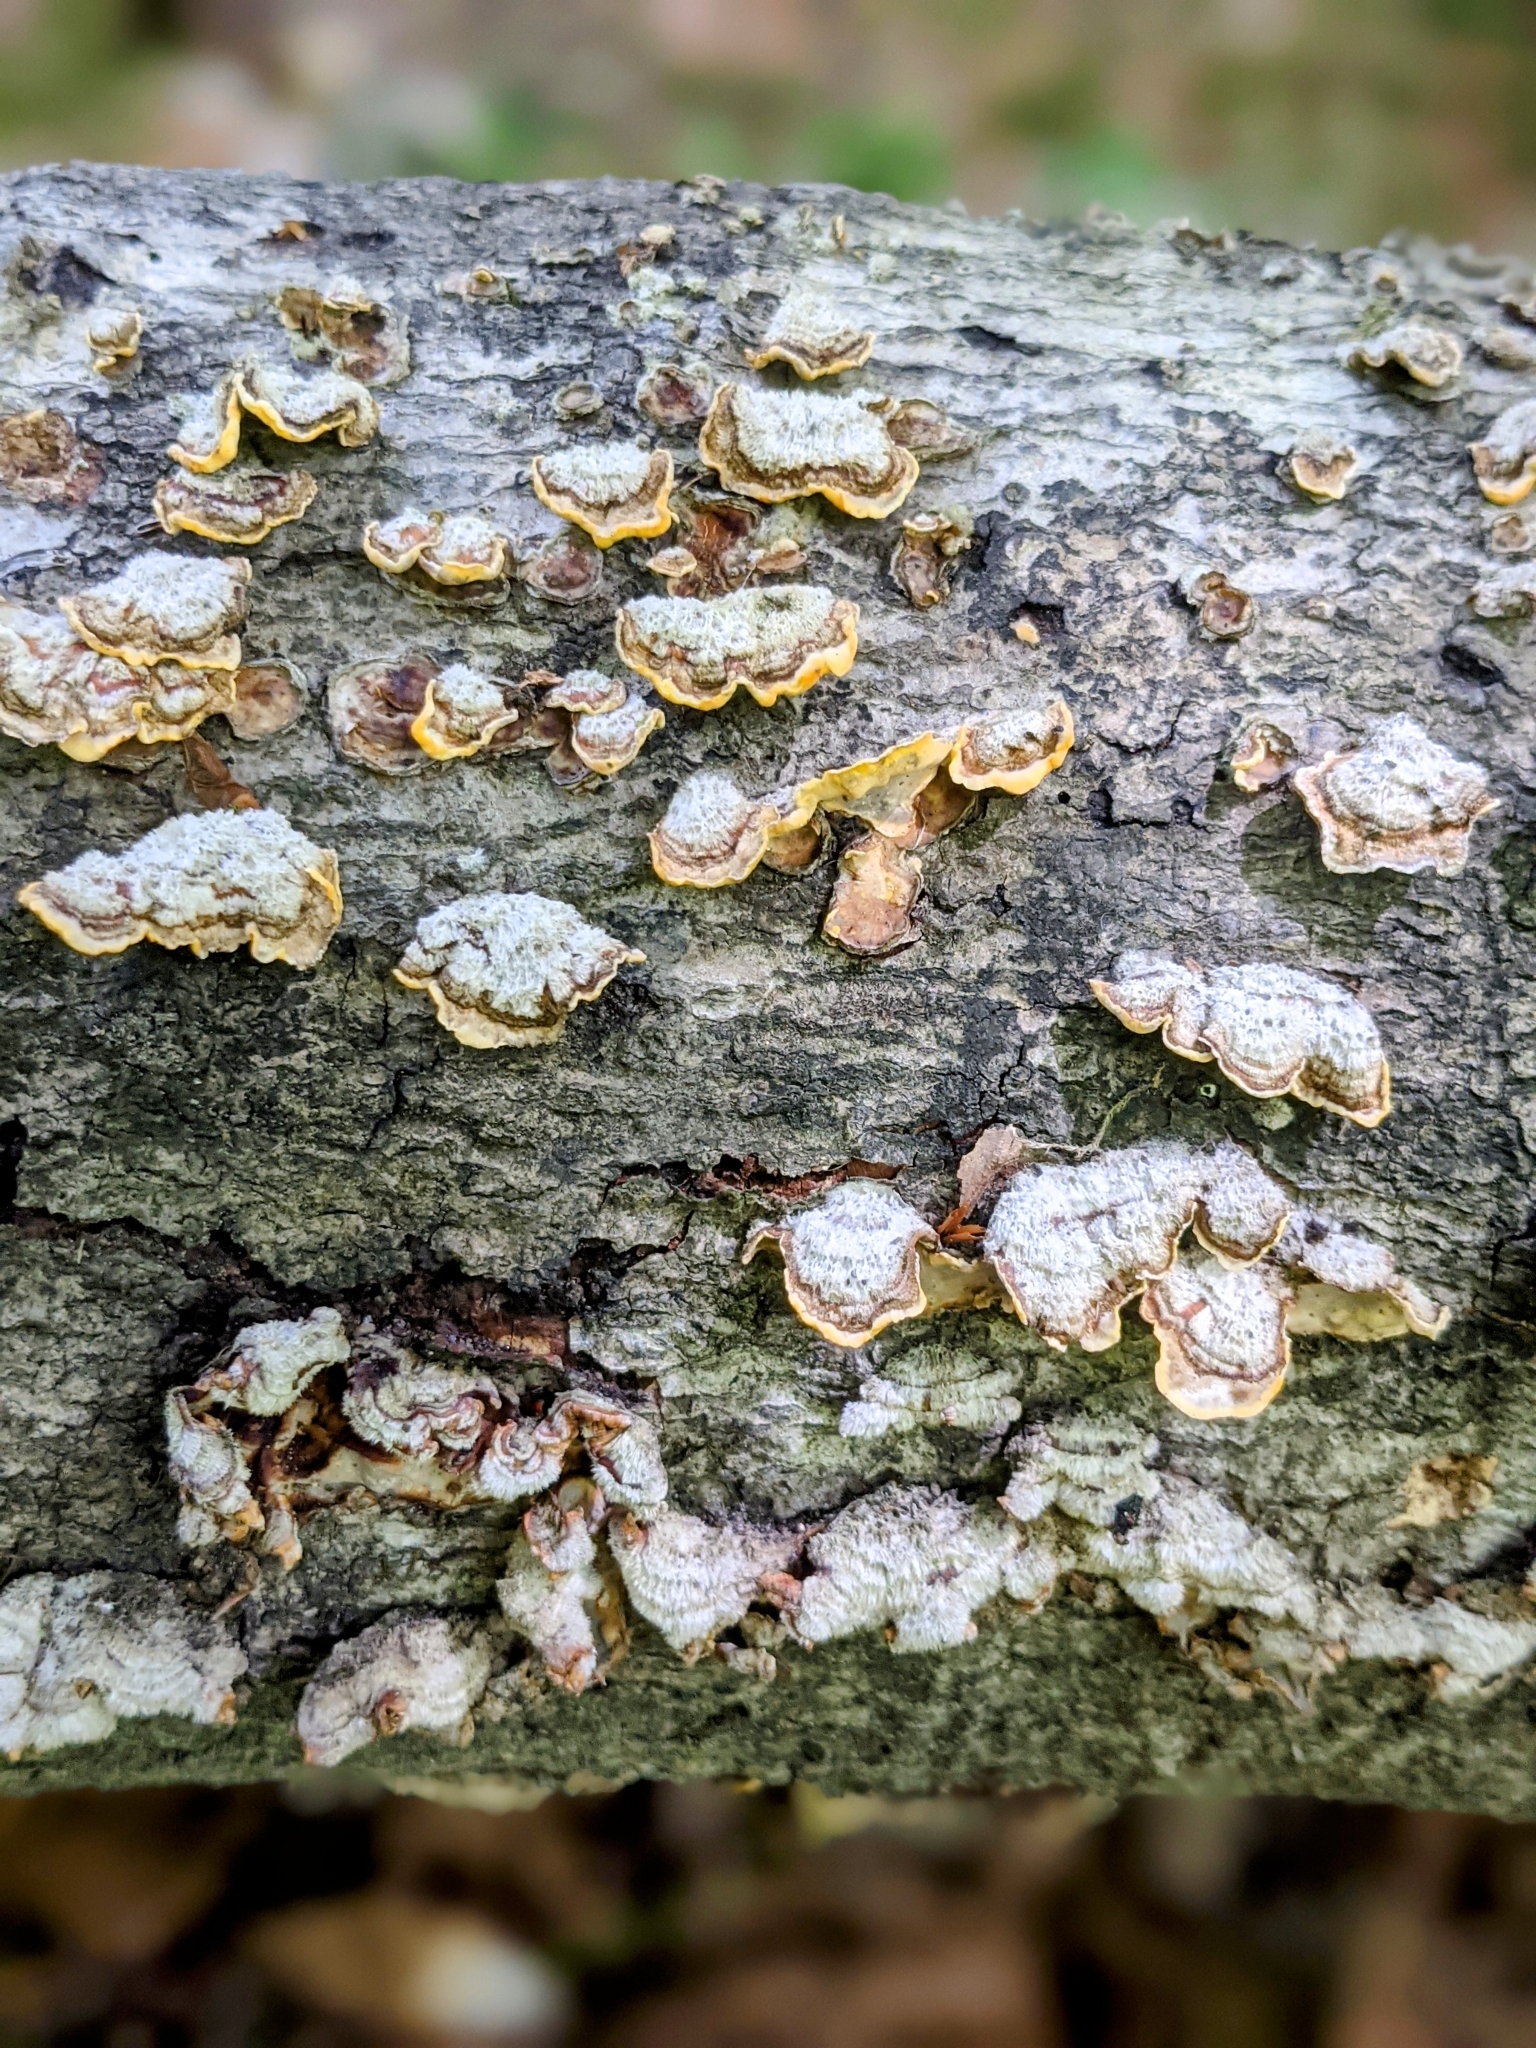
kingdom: Fungi
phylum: Basidiomycota
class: Agaricomycetes
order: Russulales
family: Stereaceae
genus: Stereum
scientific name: Stereum hirsutum
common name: Hairy curtain crust
